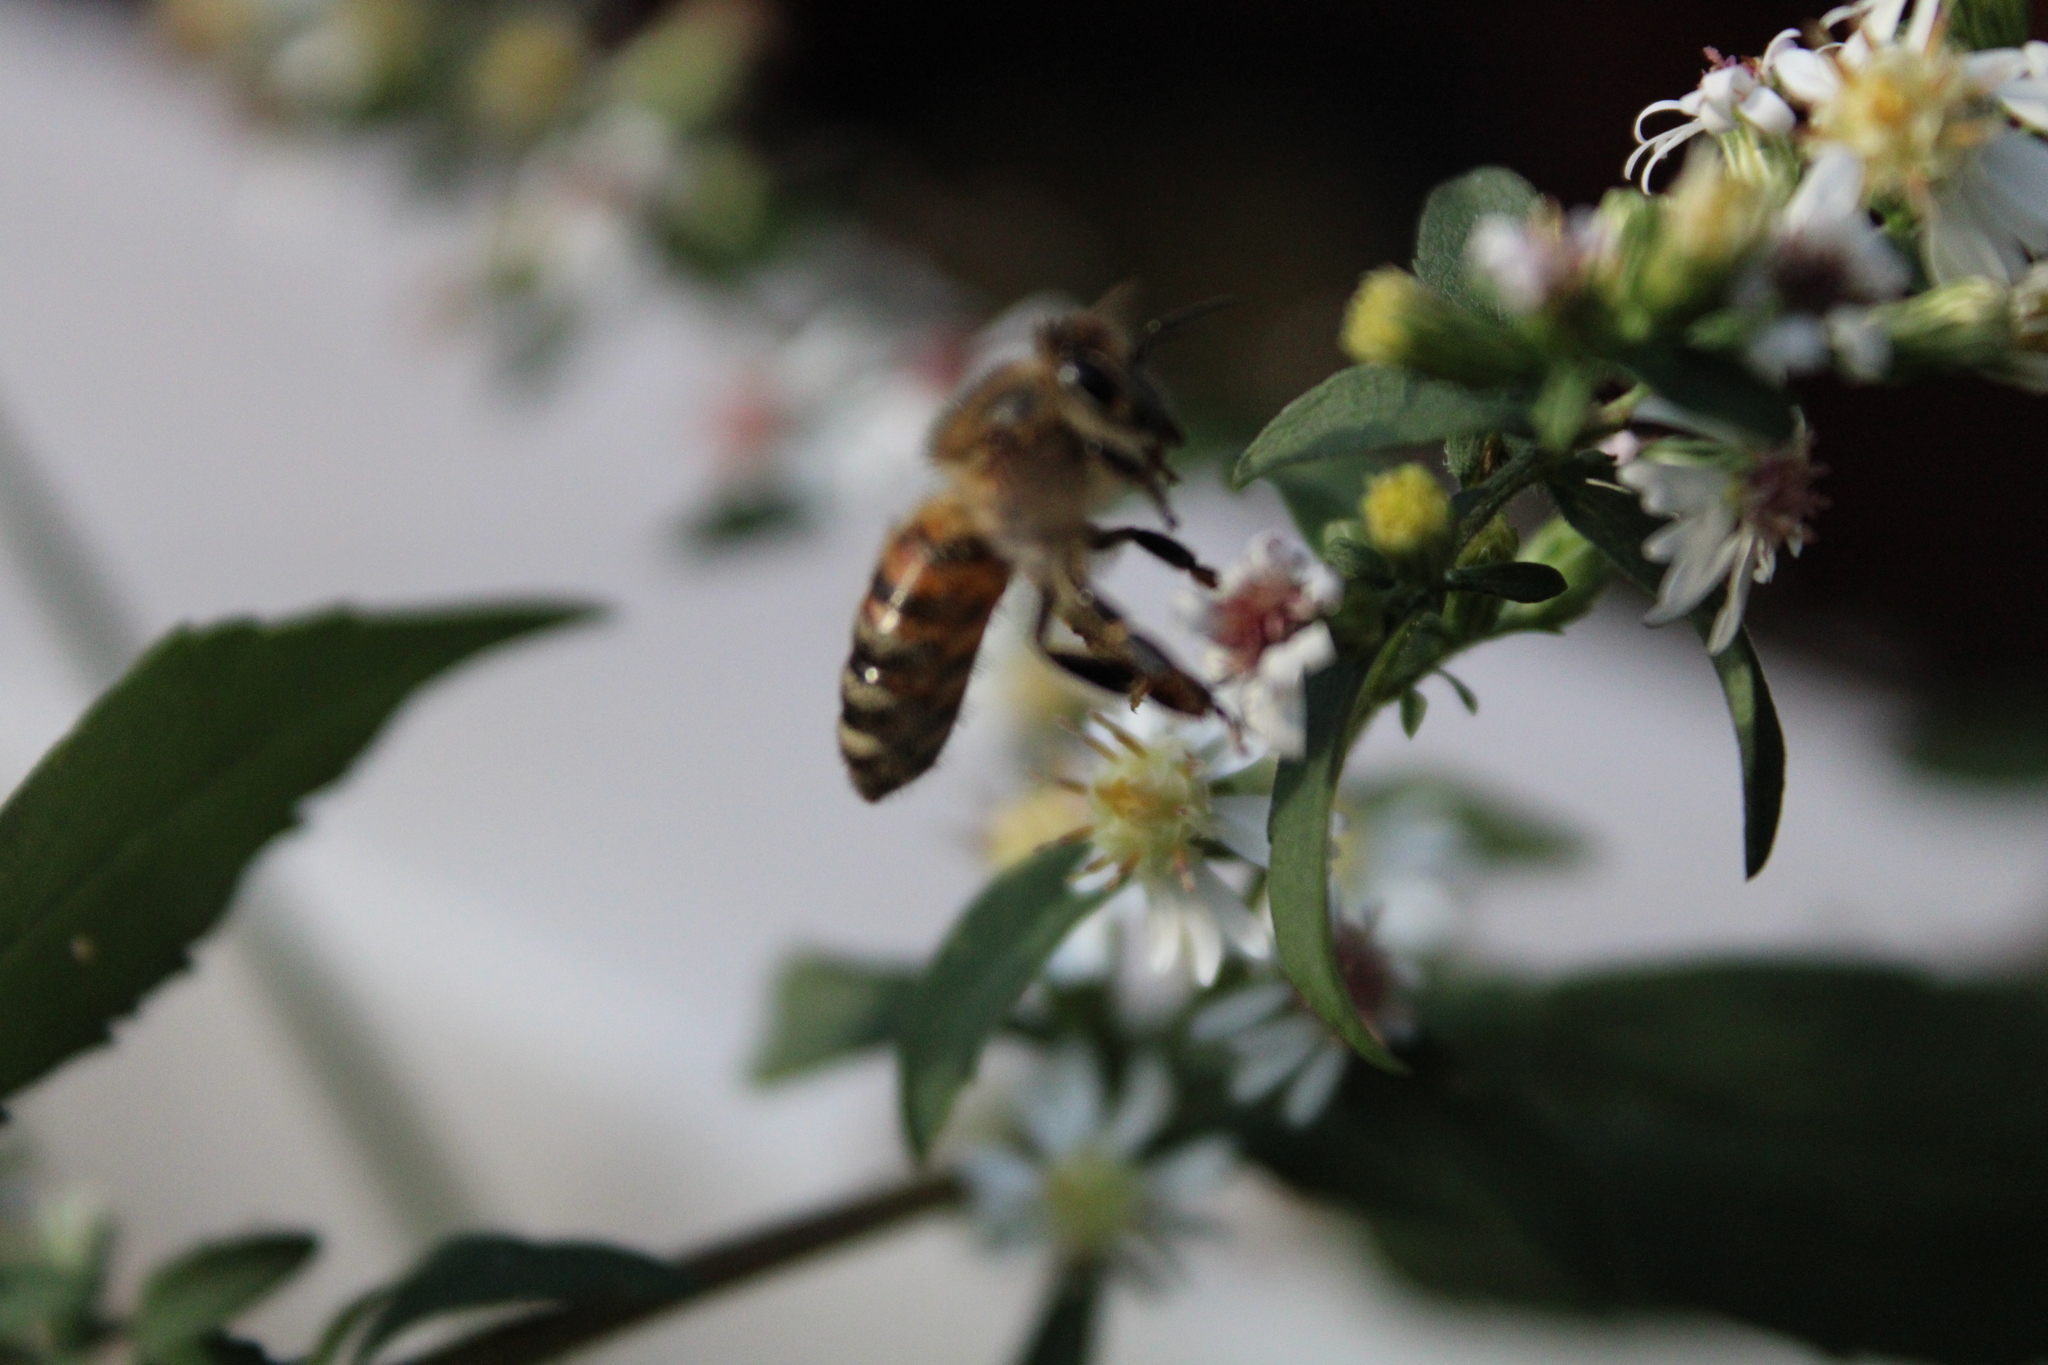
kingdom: Animalia
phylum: Arthropoda
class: Insecta
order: Hymenoptera
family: Apidae
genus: Apis
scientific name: Apis mellifera
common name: Honey bee
